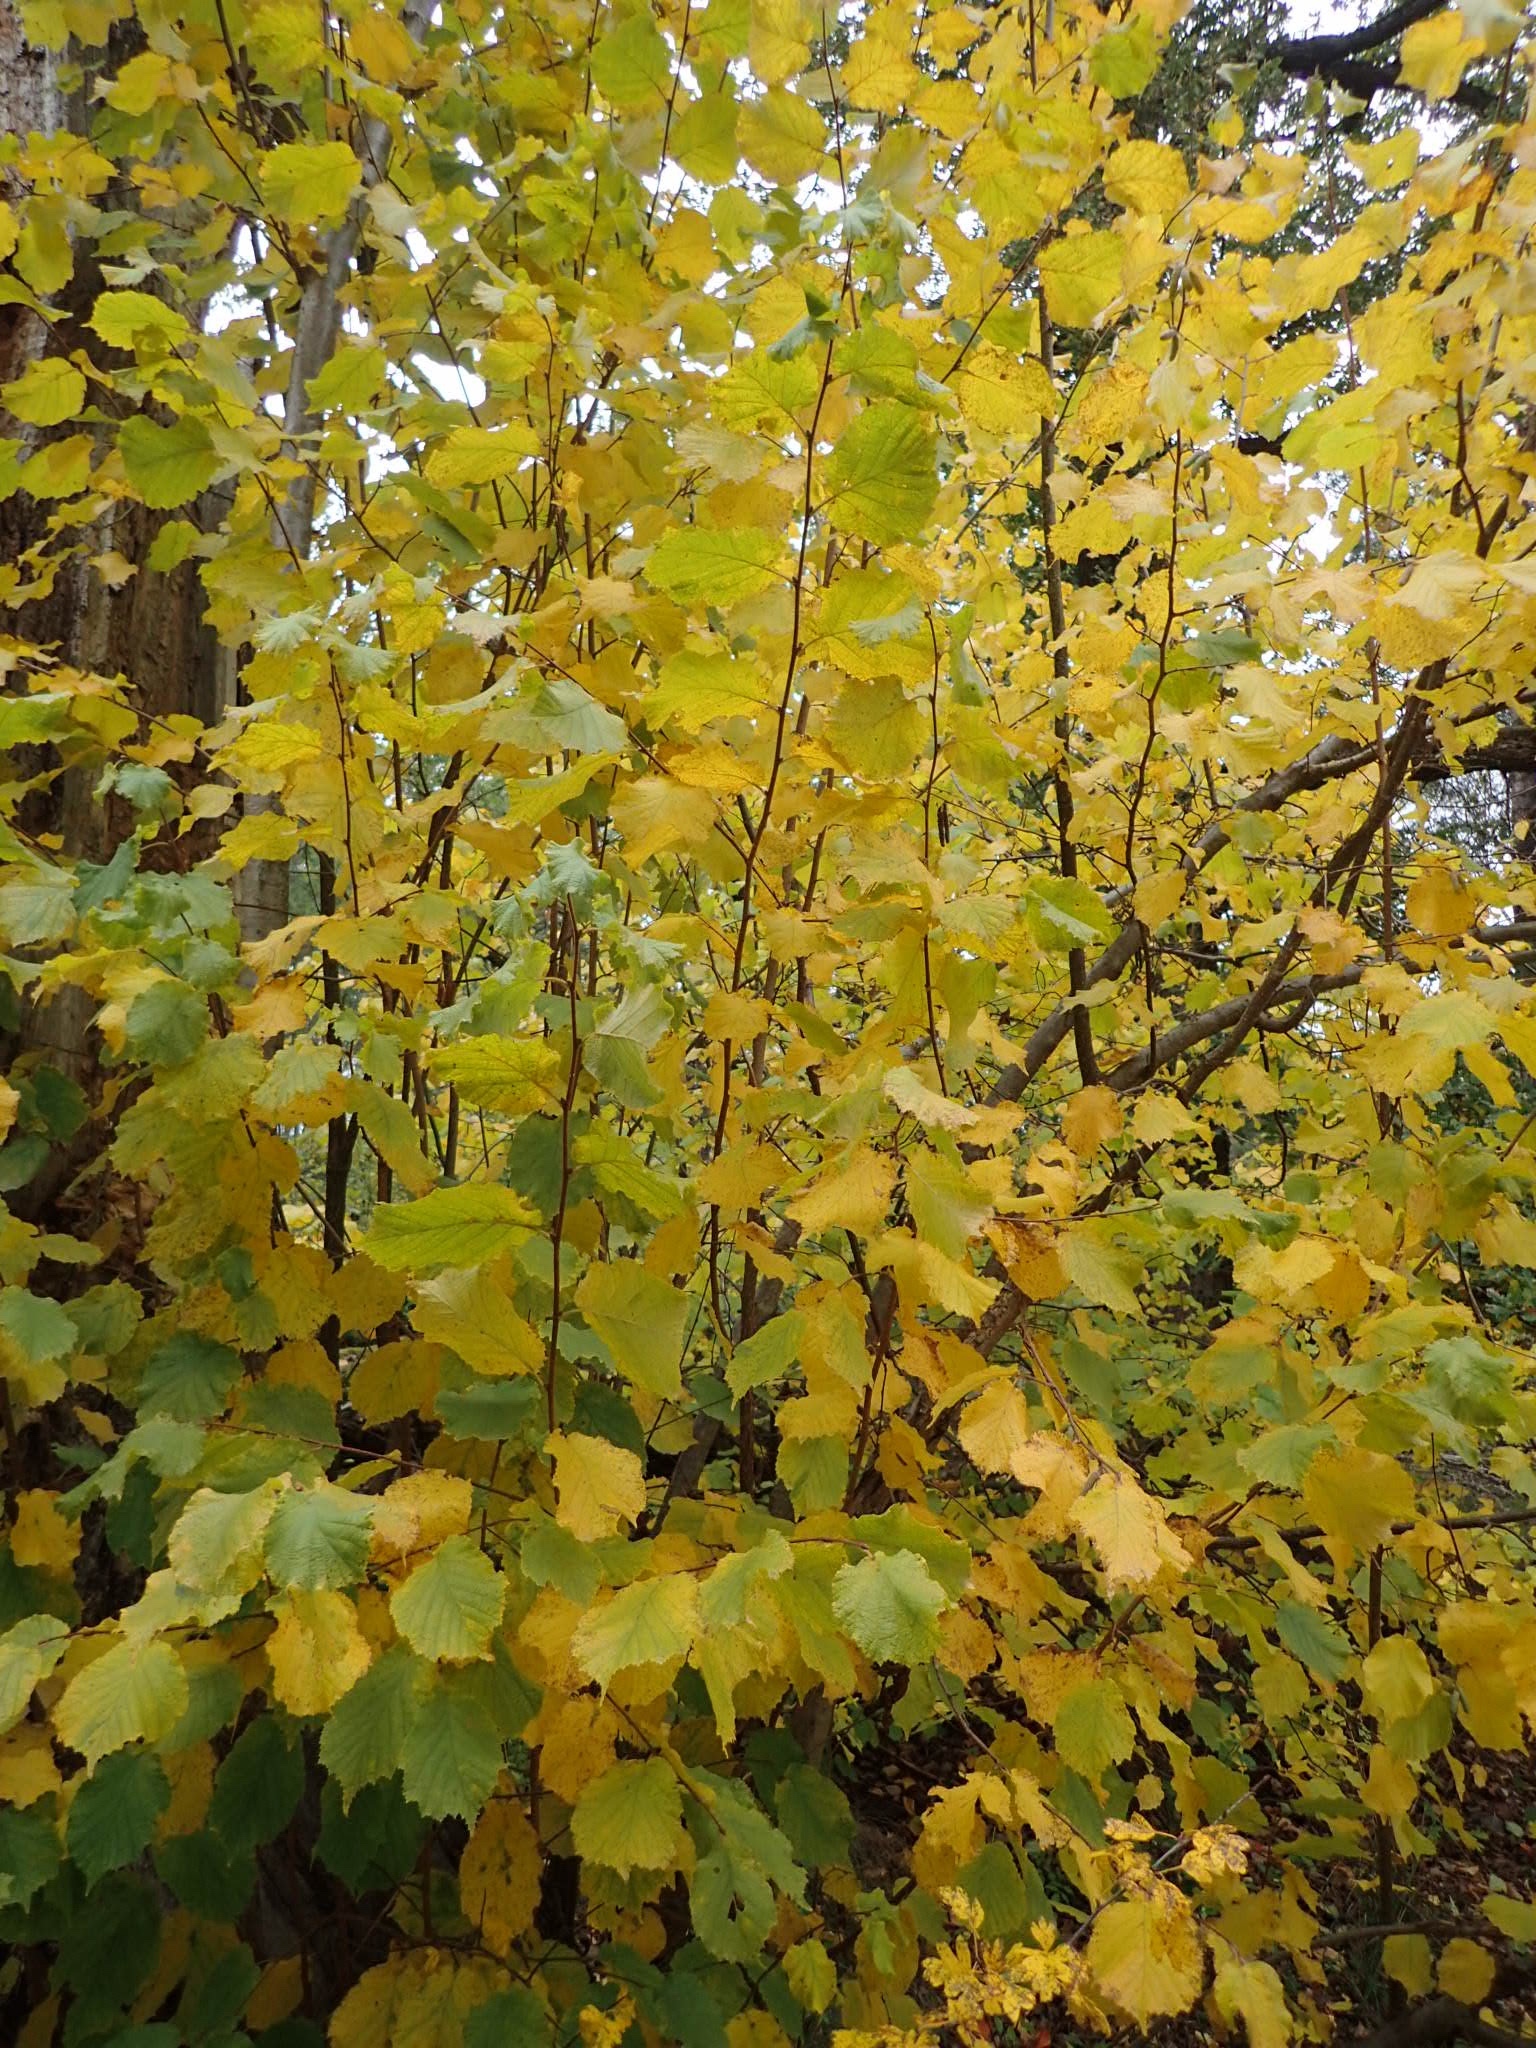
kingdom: Plantae
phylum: Tracheophyta
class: Magnoliopsida
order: Fagales
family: Betulaceae
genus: Corylus
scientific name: Corylus avellana
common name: European hazel
